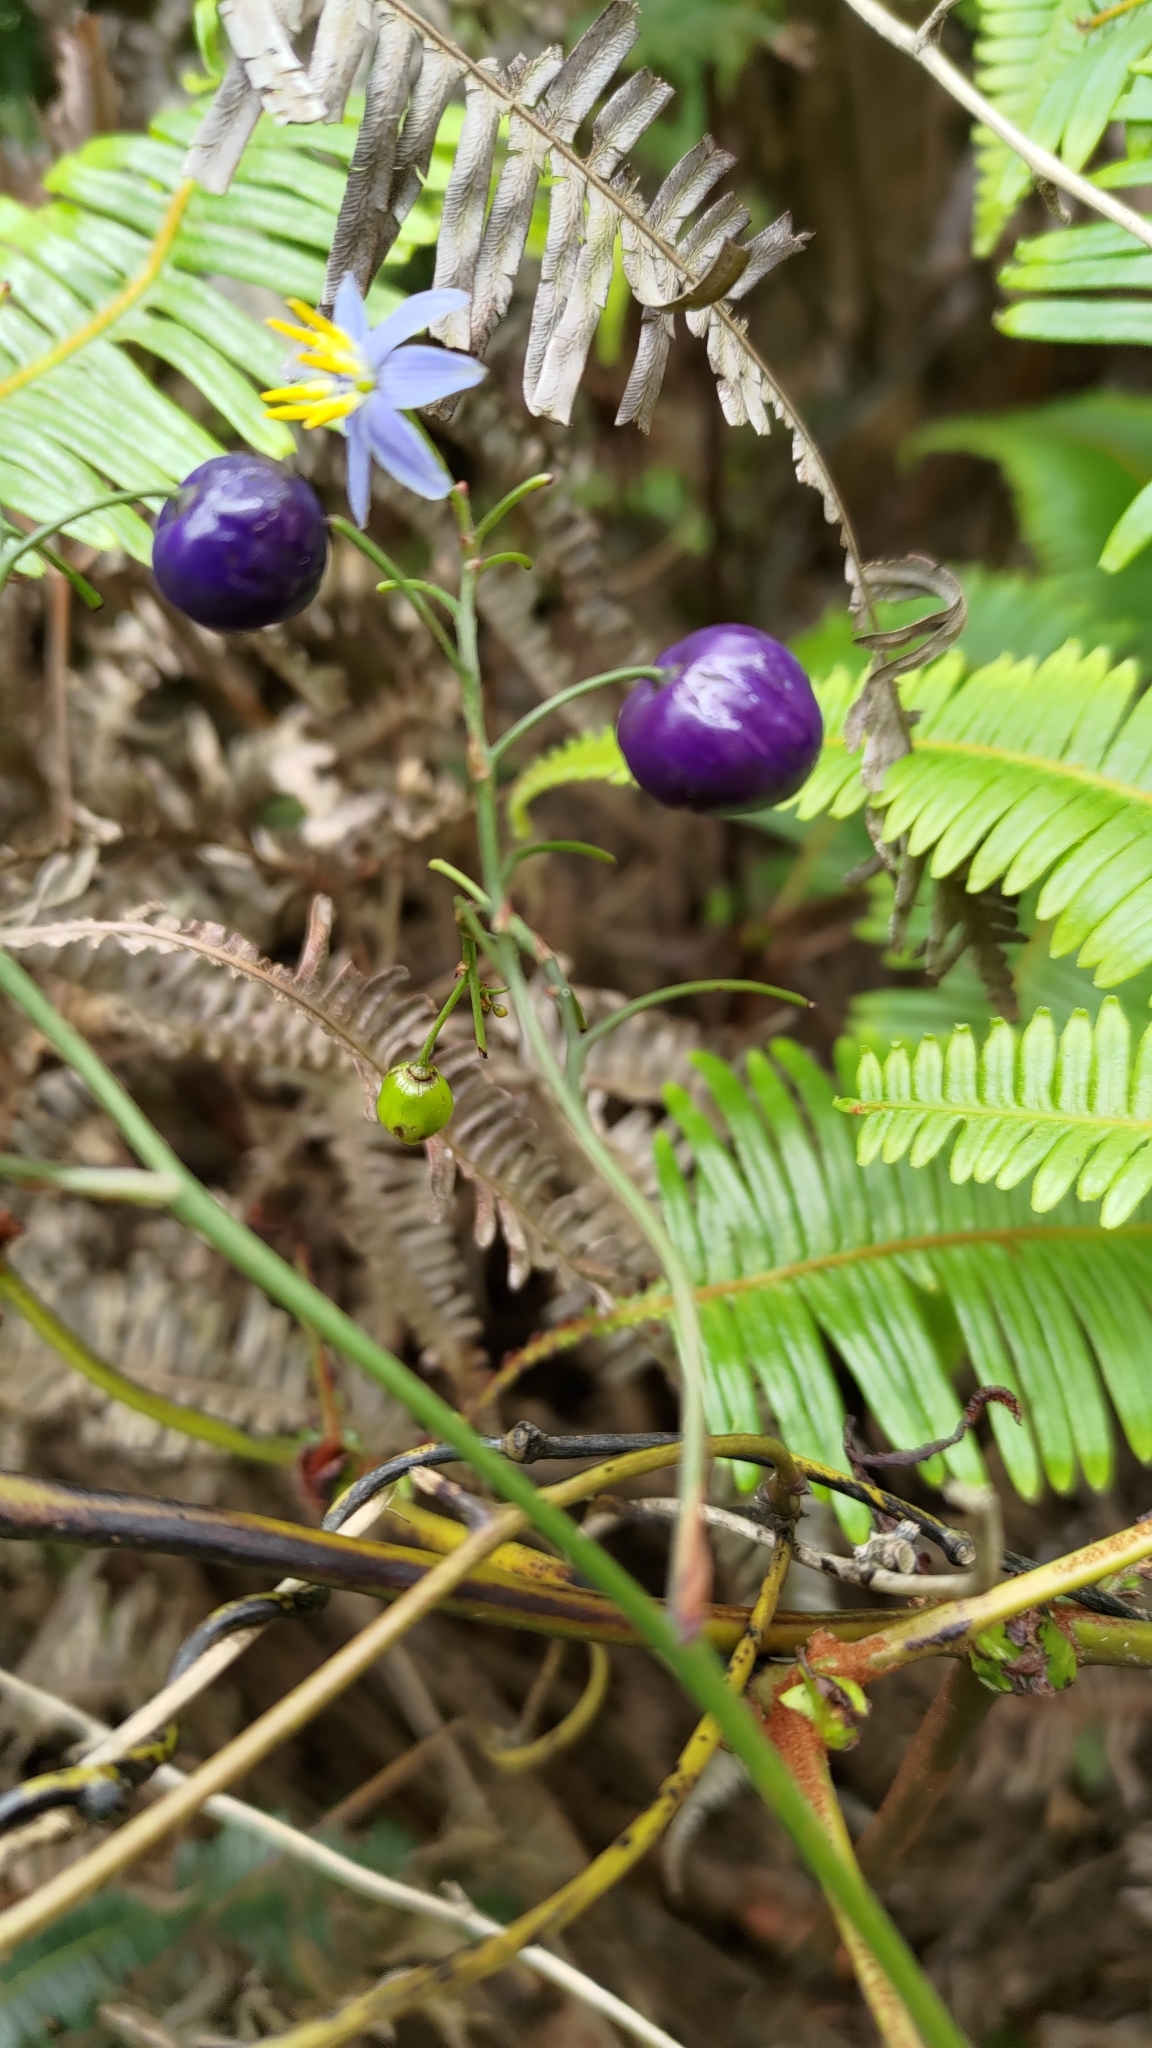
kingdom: Plantae
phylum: Tracheophyta
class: Liliopsida
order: Asparagales
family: Asphodelaceae
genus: Dianella
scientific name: Dianella ensifolia
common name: New zealand lilyplant
